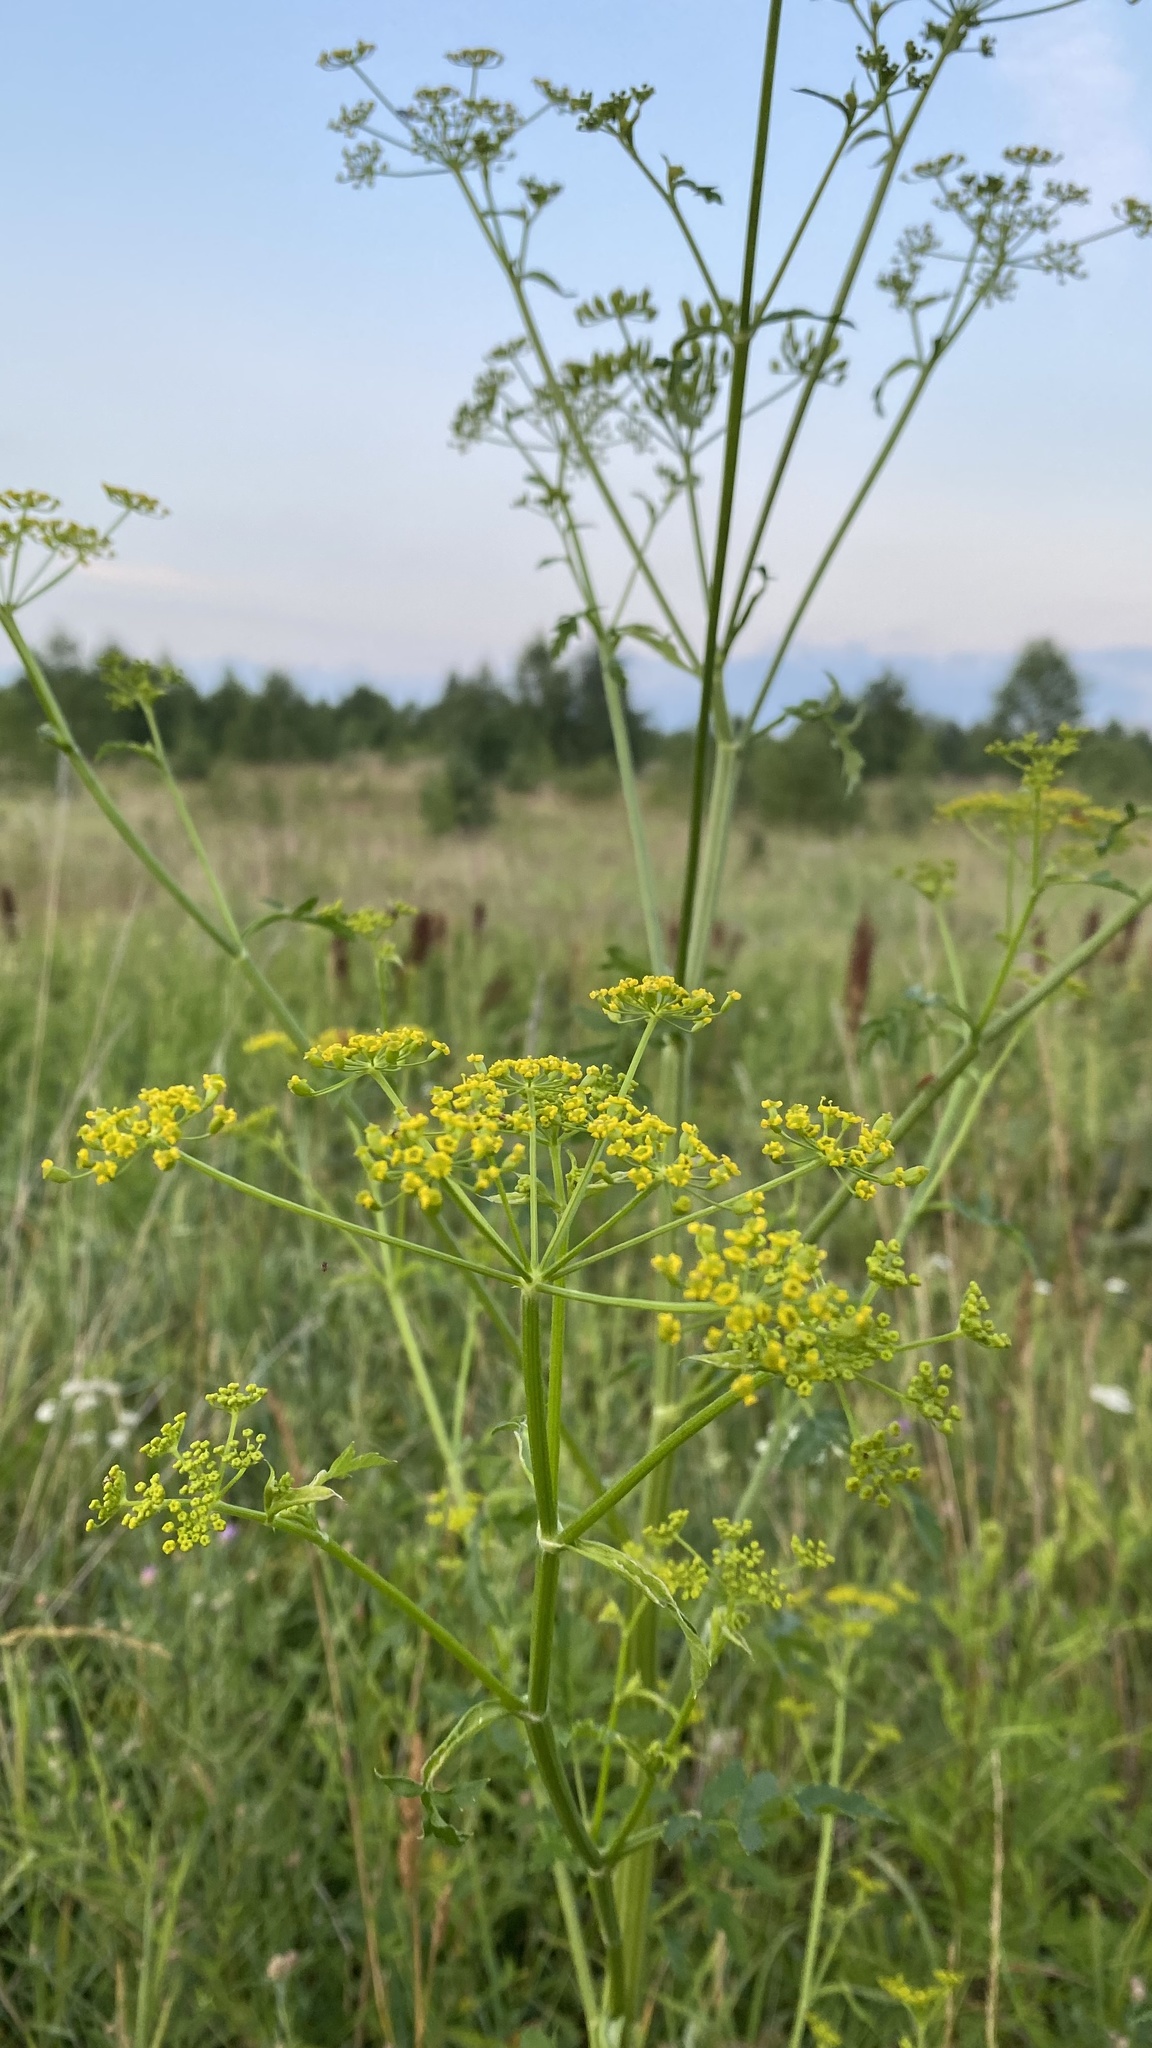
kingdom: Plantae
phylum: Tracheophyta
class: Magnoliopsida
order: Apiales
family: Apiaceae
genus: Pastinaca
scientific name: Pastinaca sativa
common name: Wild parsnip
